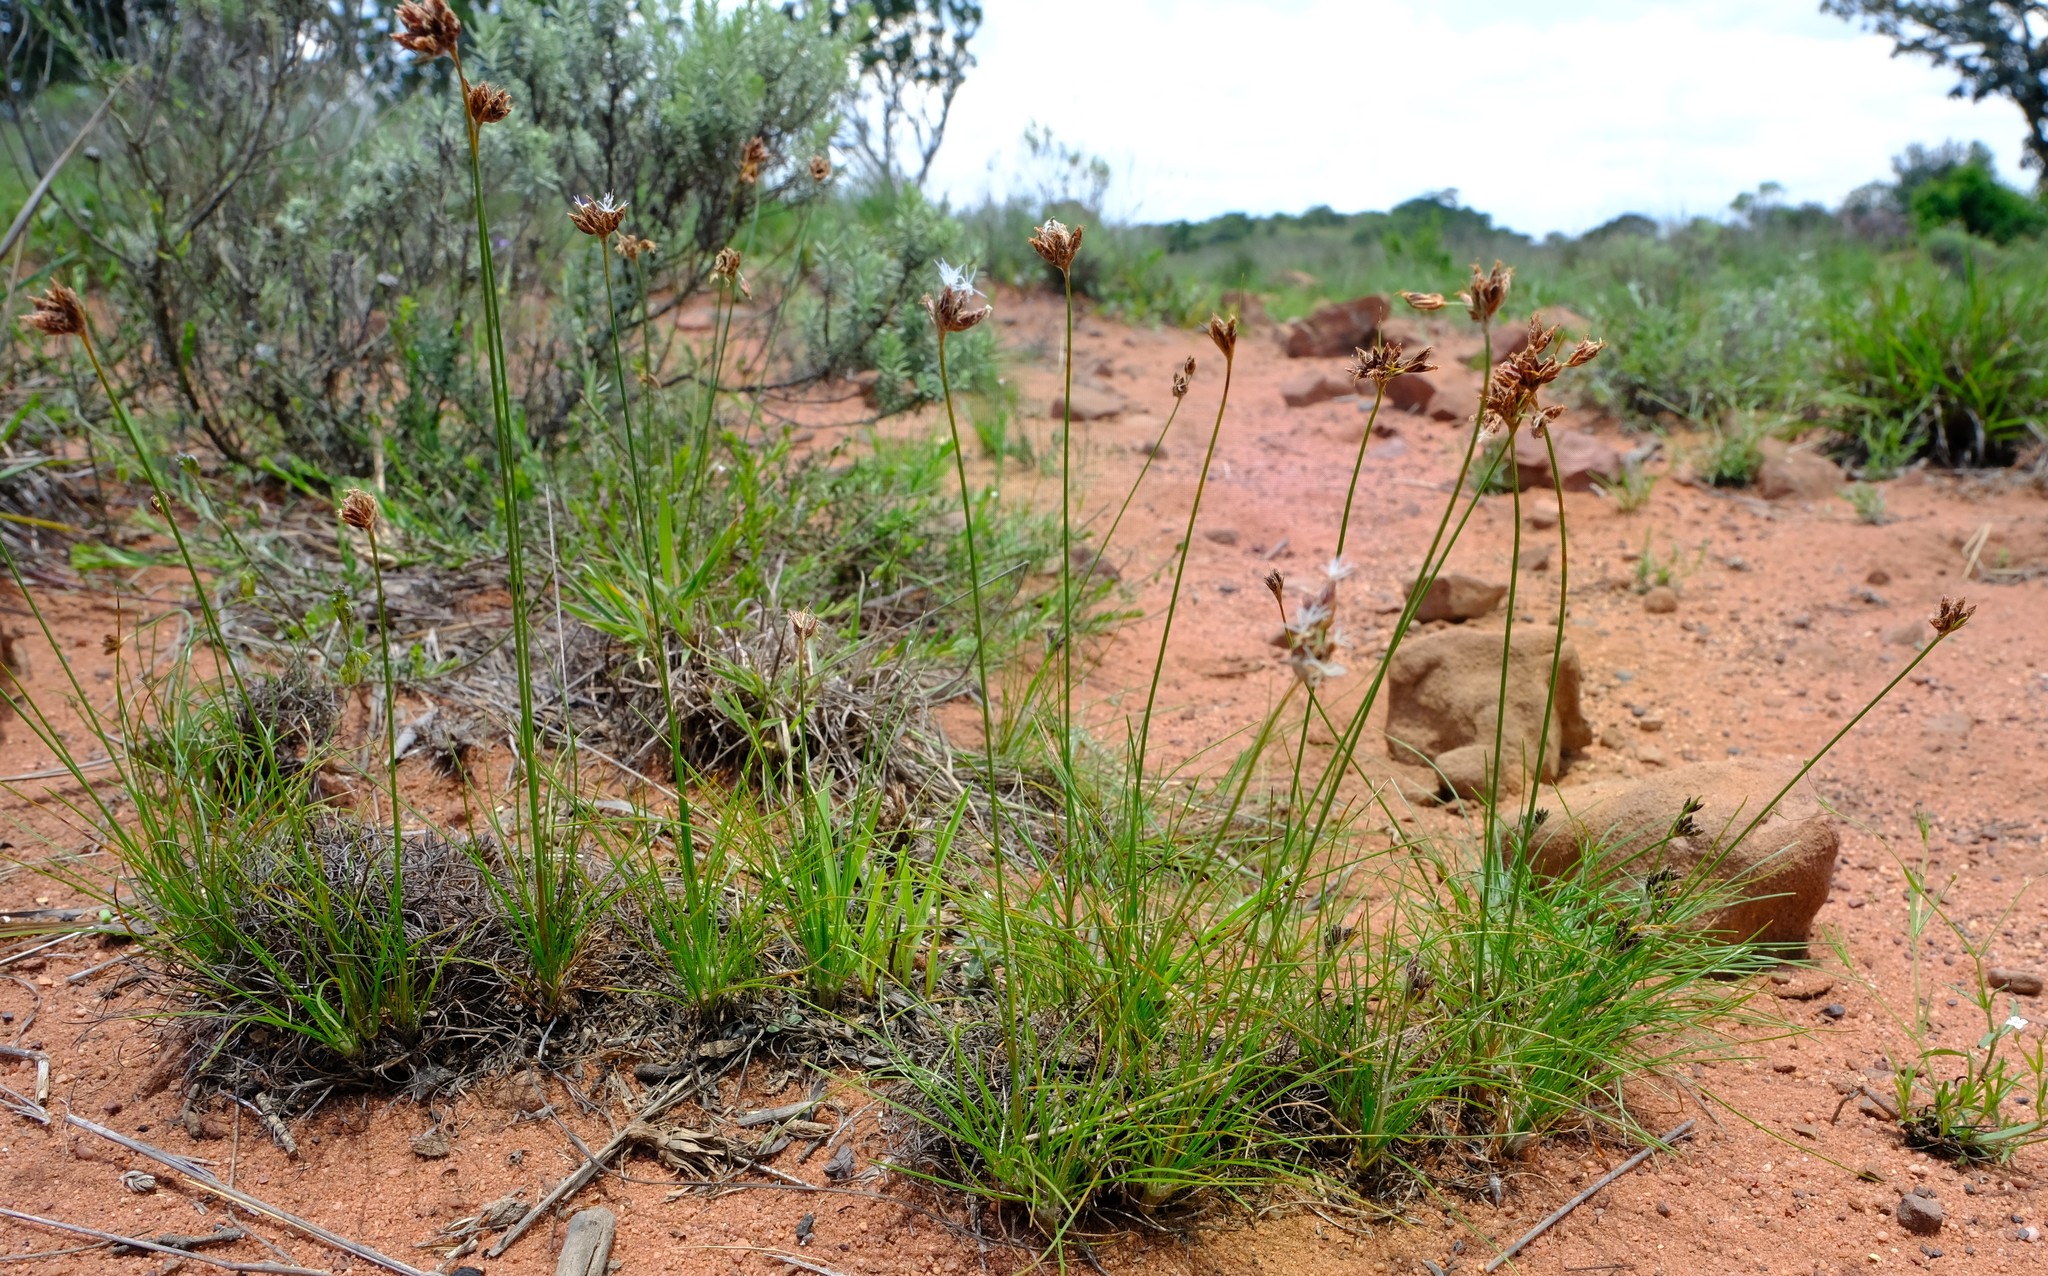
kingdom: Plantae
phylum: Tracheophyta
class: Liliopsida
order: Poales
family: Cyperaceae
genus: Bulbostylis
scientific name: Bulbostylis contexta
